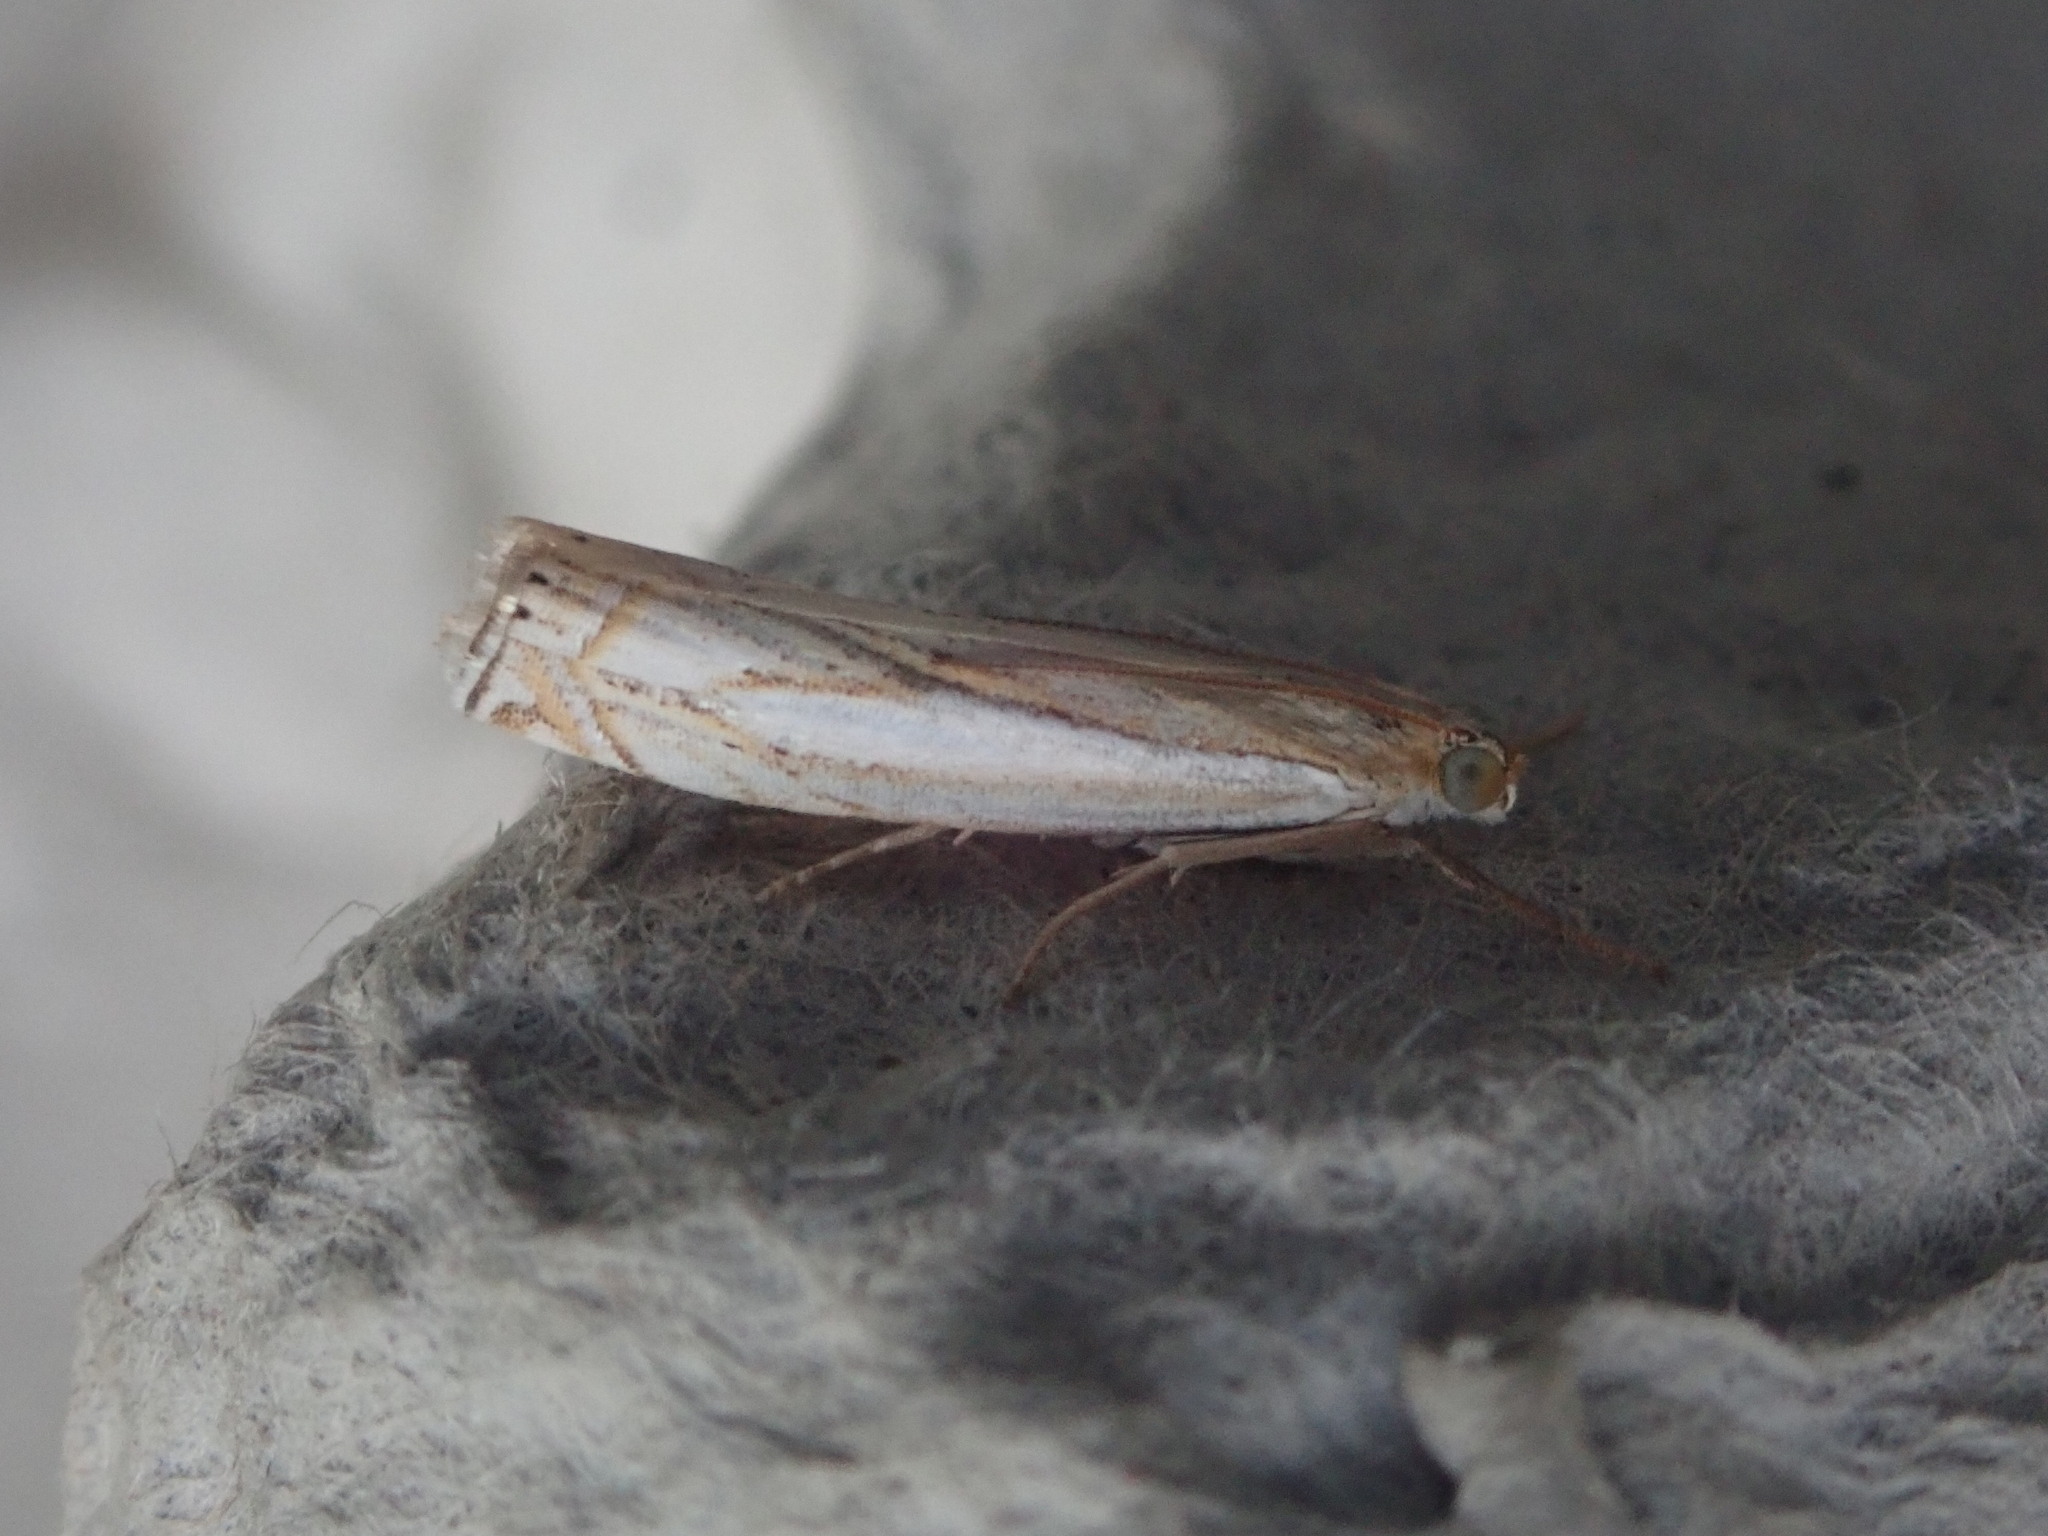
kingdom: Animalia
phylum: Arthropoda
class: Insecta
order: Lepidoptera
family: Crambidae
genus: Crambus
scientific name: Crambus saltuellus
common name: Pasture grass-veneer
